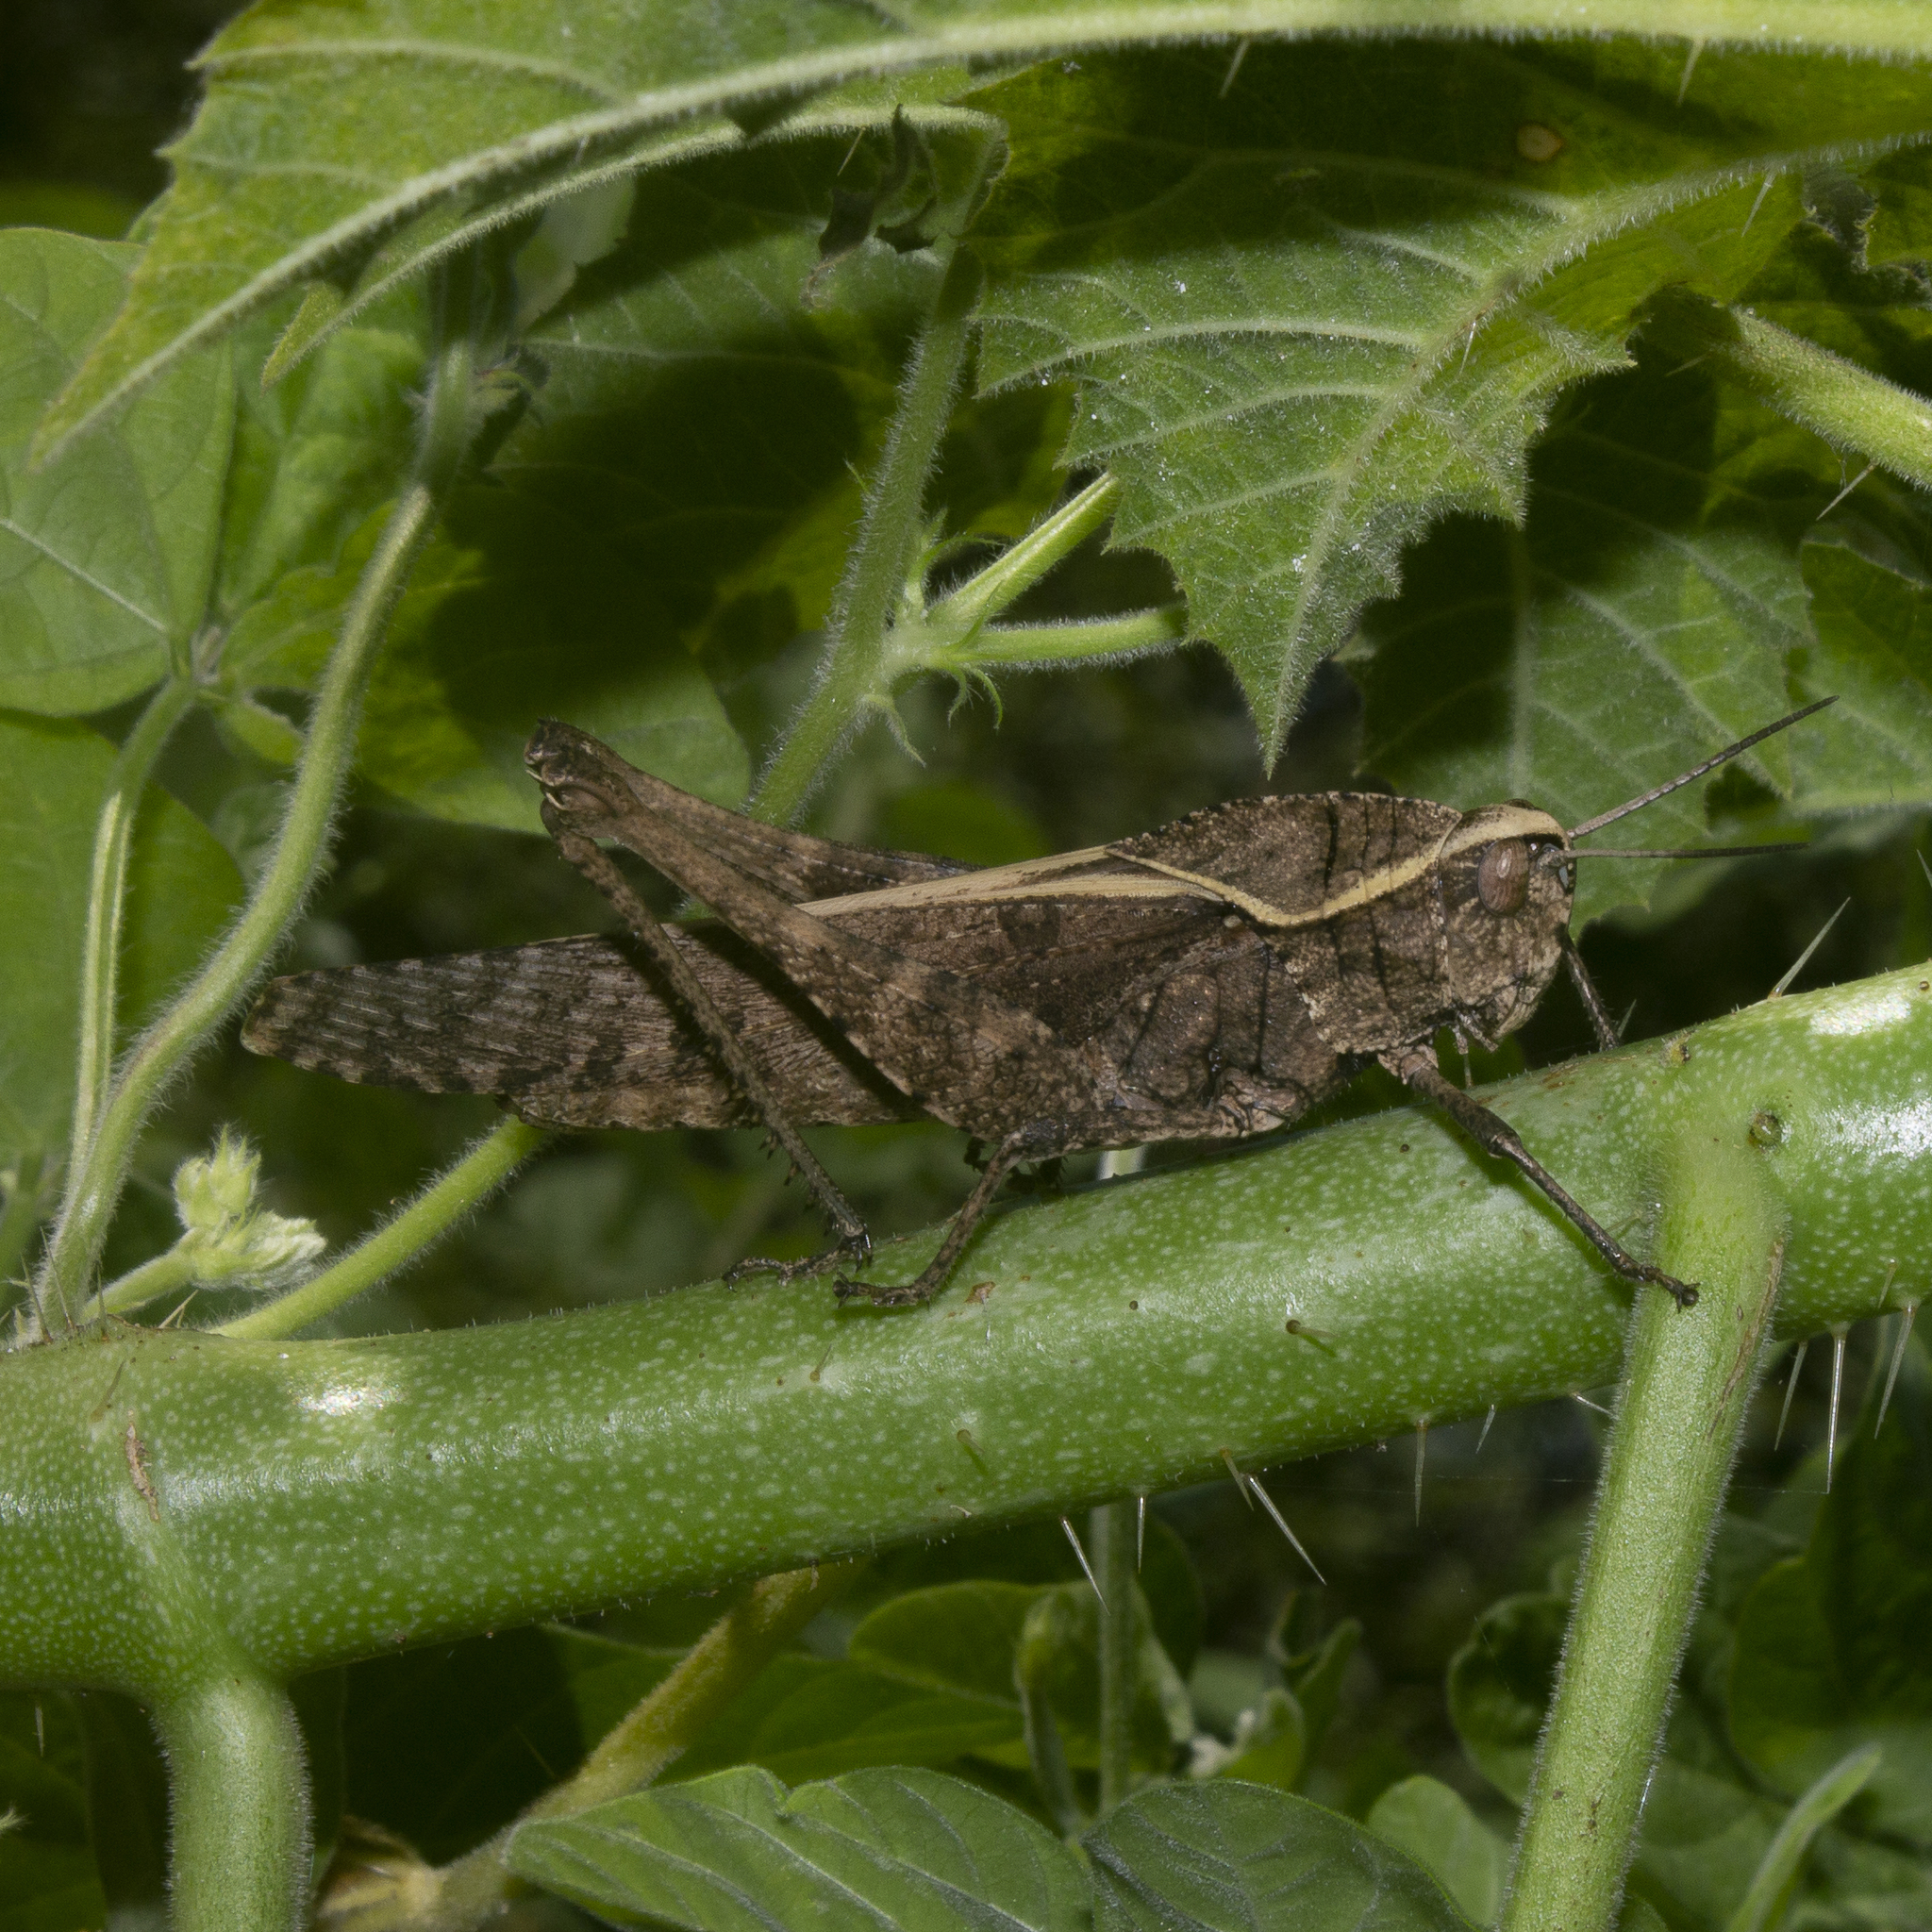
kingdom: Animalia
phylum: Arthropoda
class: Insecta
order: Orthoptera
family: Romaleidae
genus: Xyleus
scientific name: Xyleus discoideus
